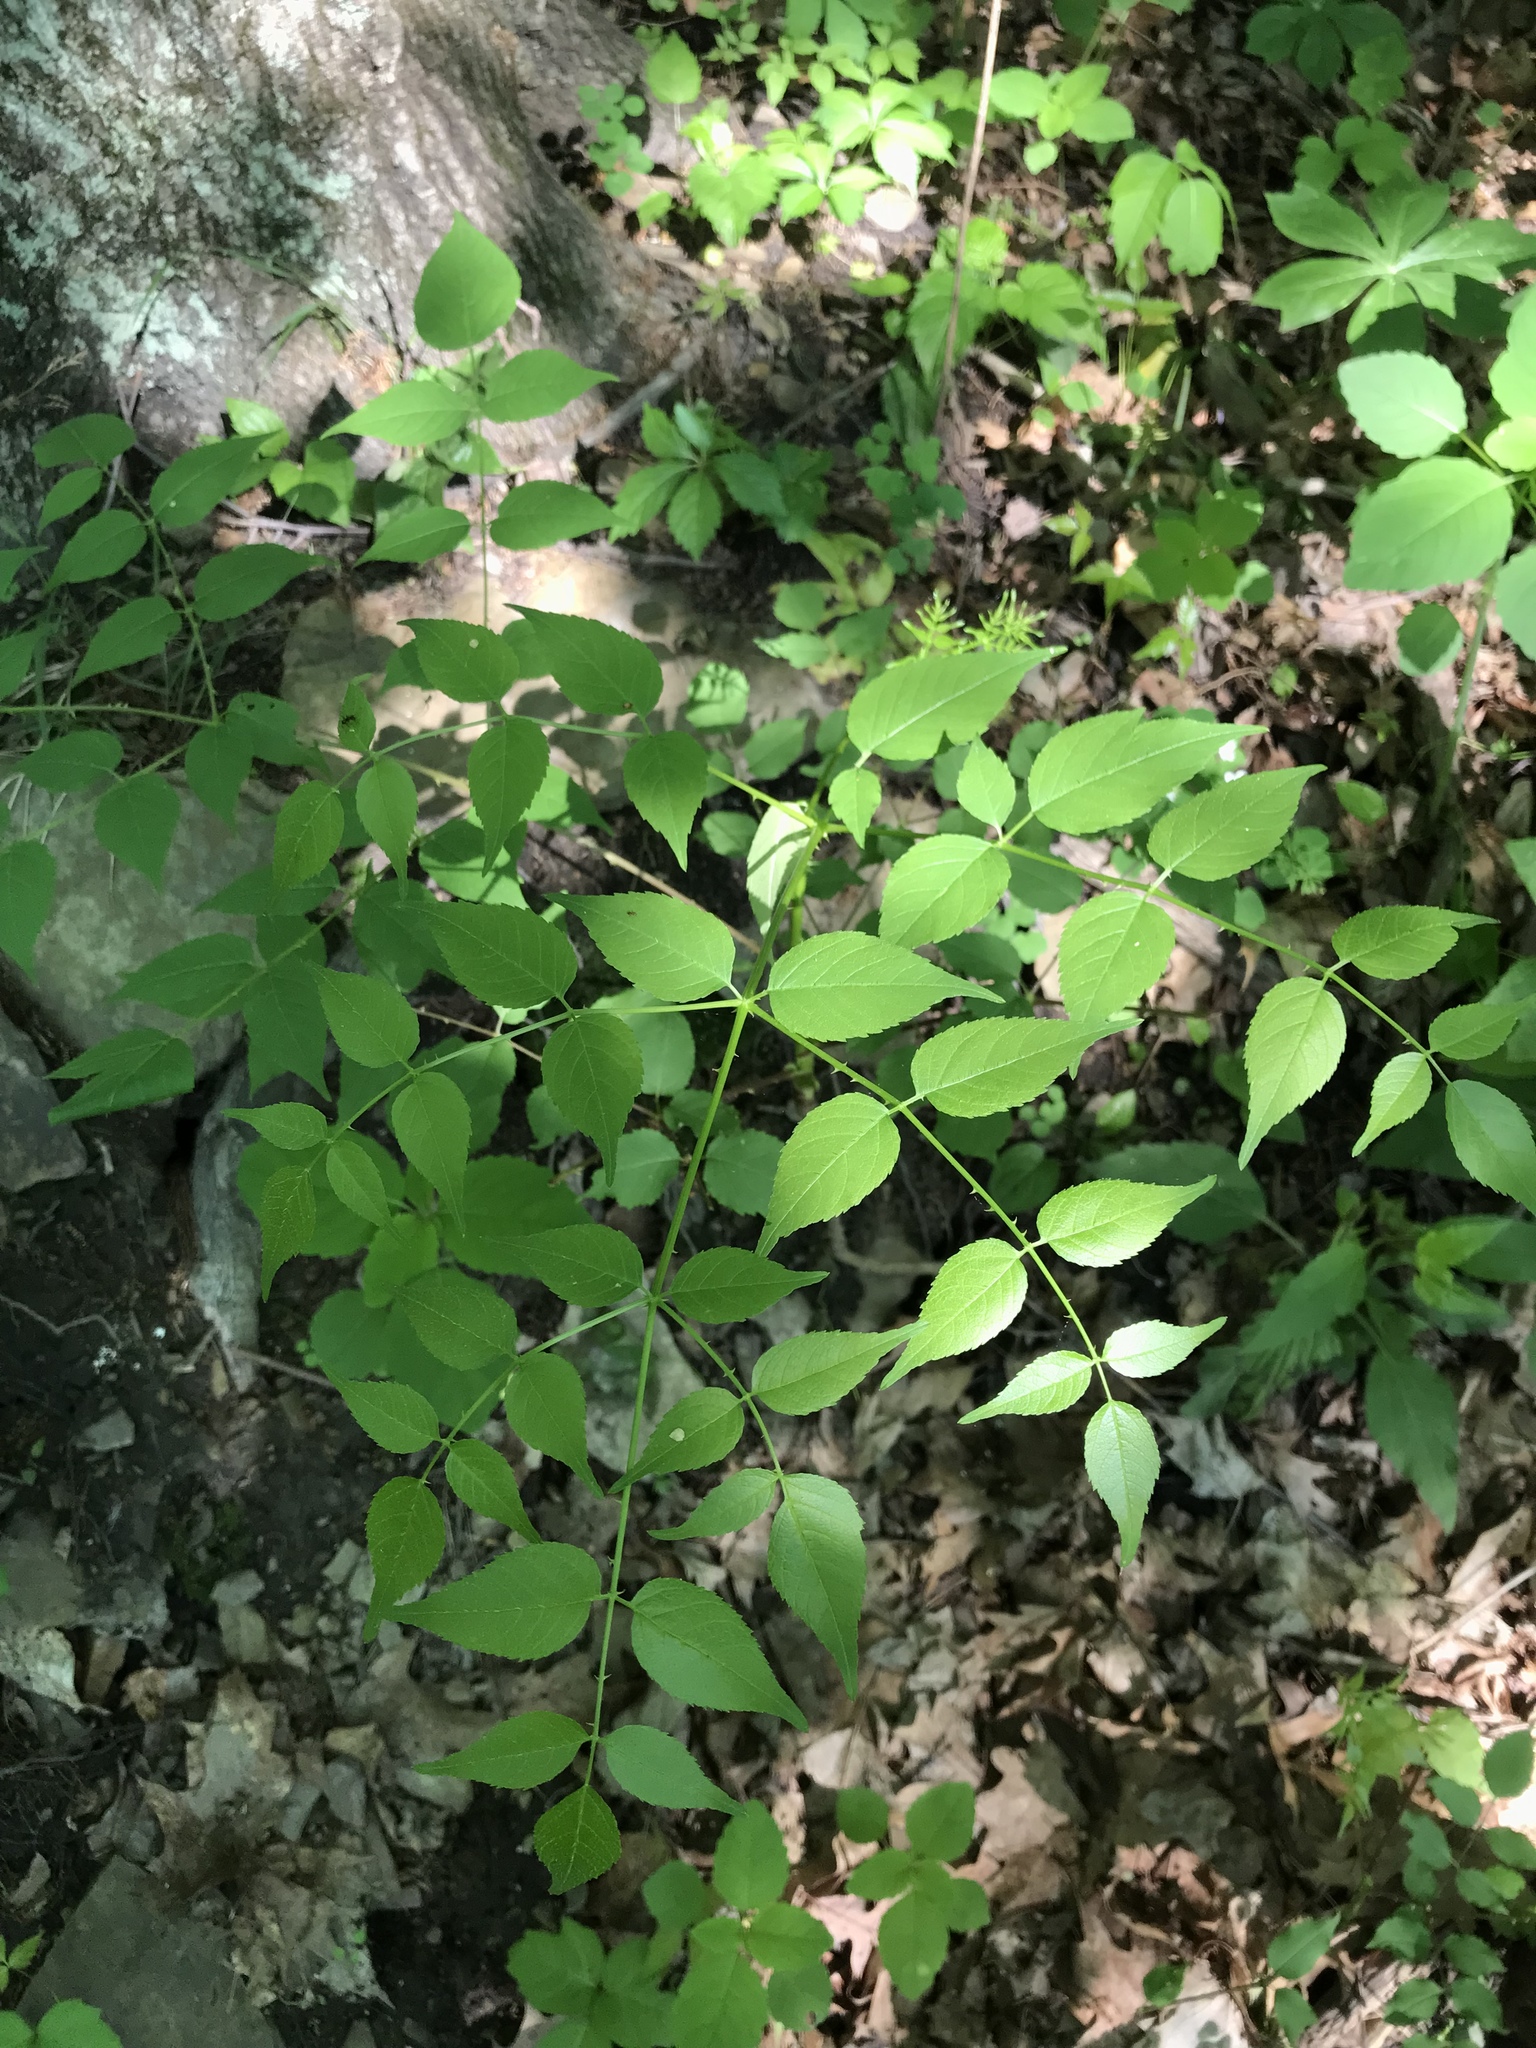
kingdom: Plantae
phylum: Tracheophyta
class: Magnoliopsida
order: Apiales
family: Araliaceae
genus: Aralia
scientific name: Aralia spinosa
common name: Hercules'-club
